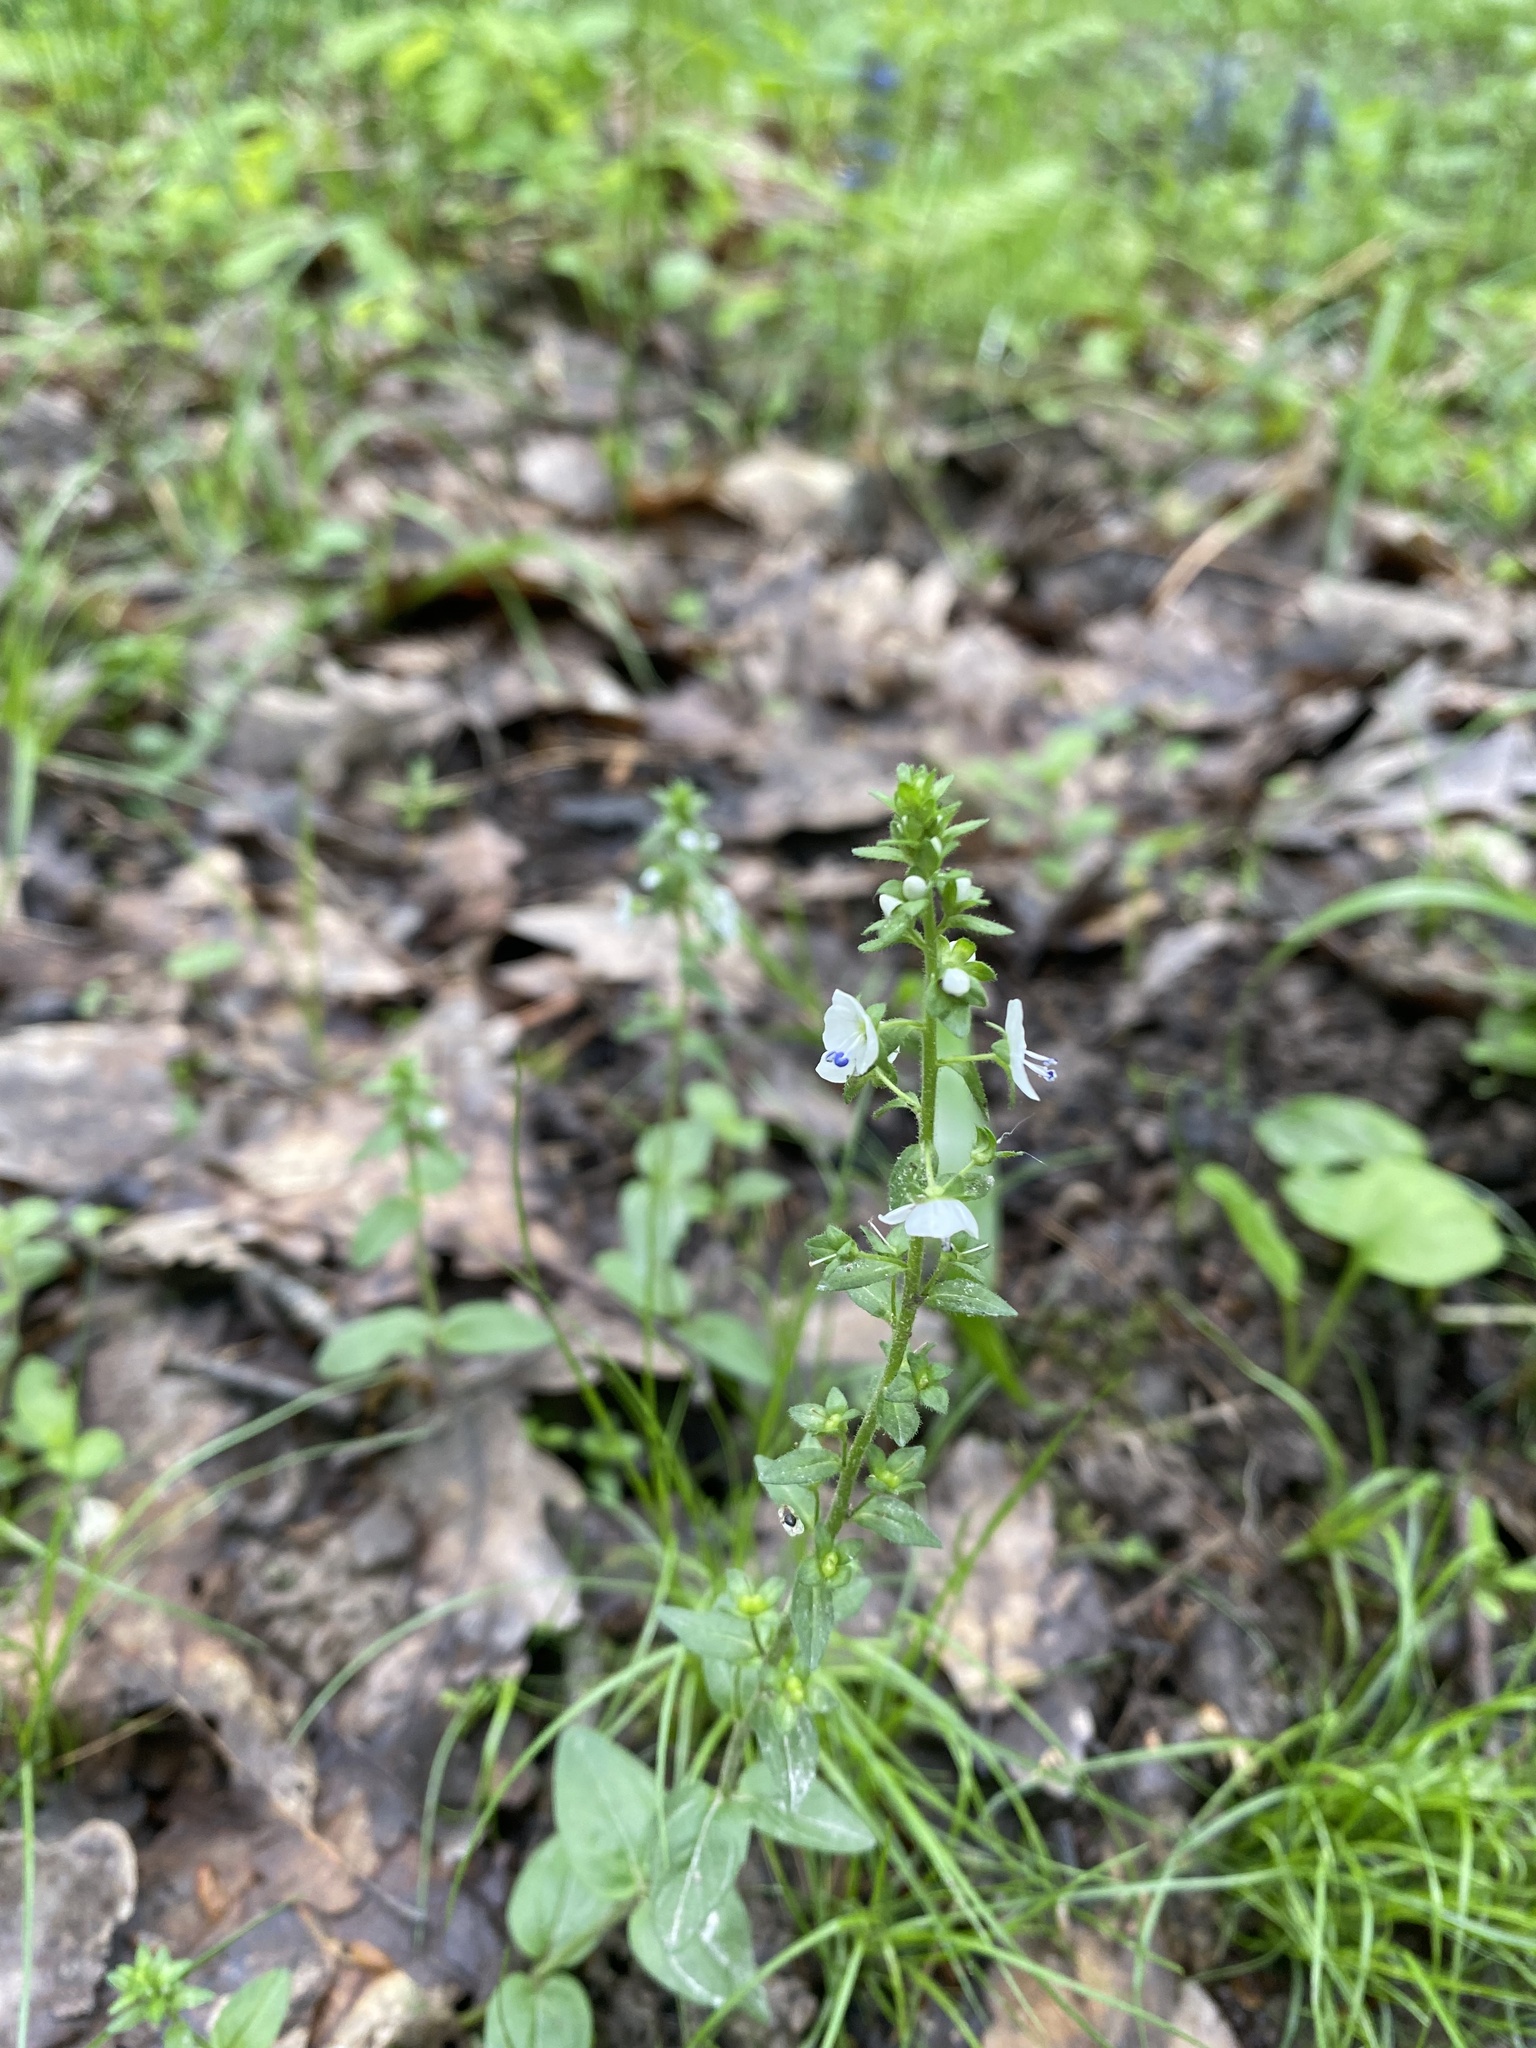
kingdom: Plantae
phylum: Tracheophyta
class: Magnoliopsida
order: Lamiales
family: Plantaginaceae
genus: Veronica
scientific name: Veronica serpyllifolia
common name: Thyme-leaved speedwell
